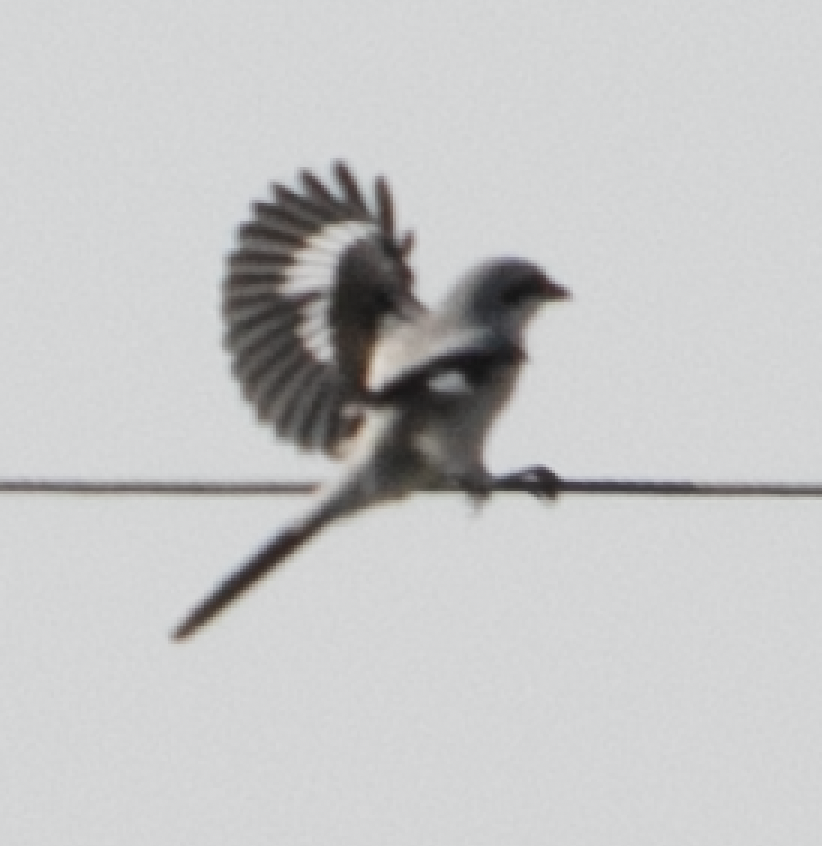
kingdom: Animalia
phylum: Chordata
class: Aves
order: Passeriformes
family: Laniidae
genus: Lanius
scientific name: Lanius excubitor
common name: Great grey shrike
